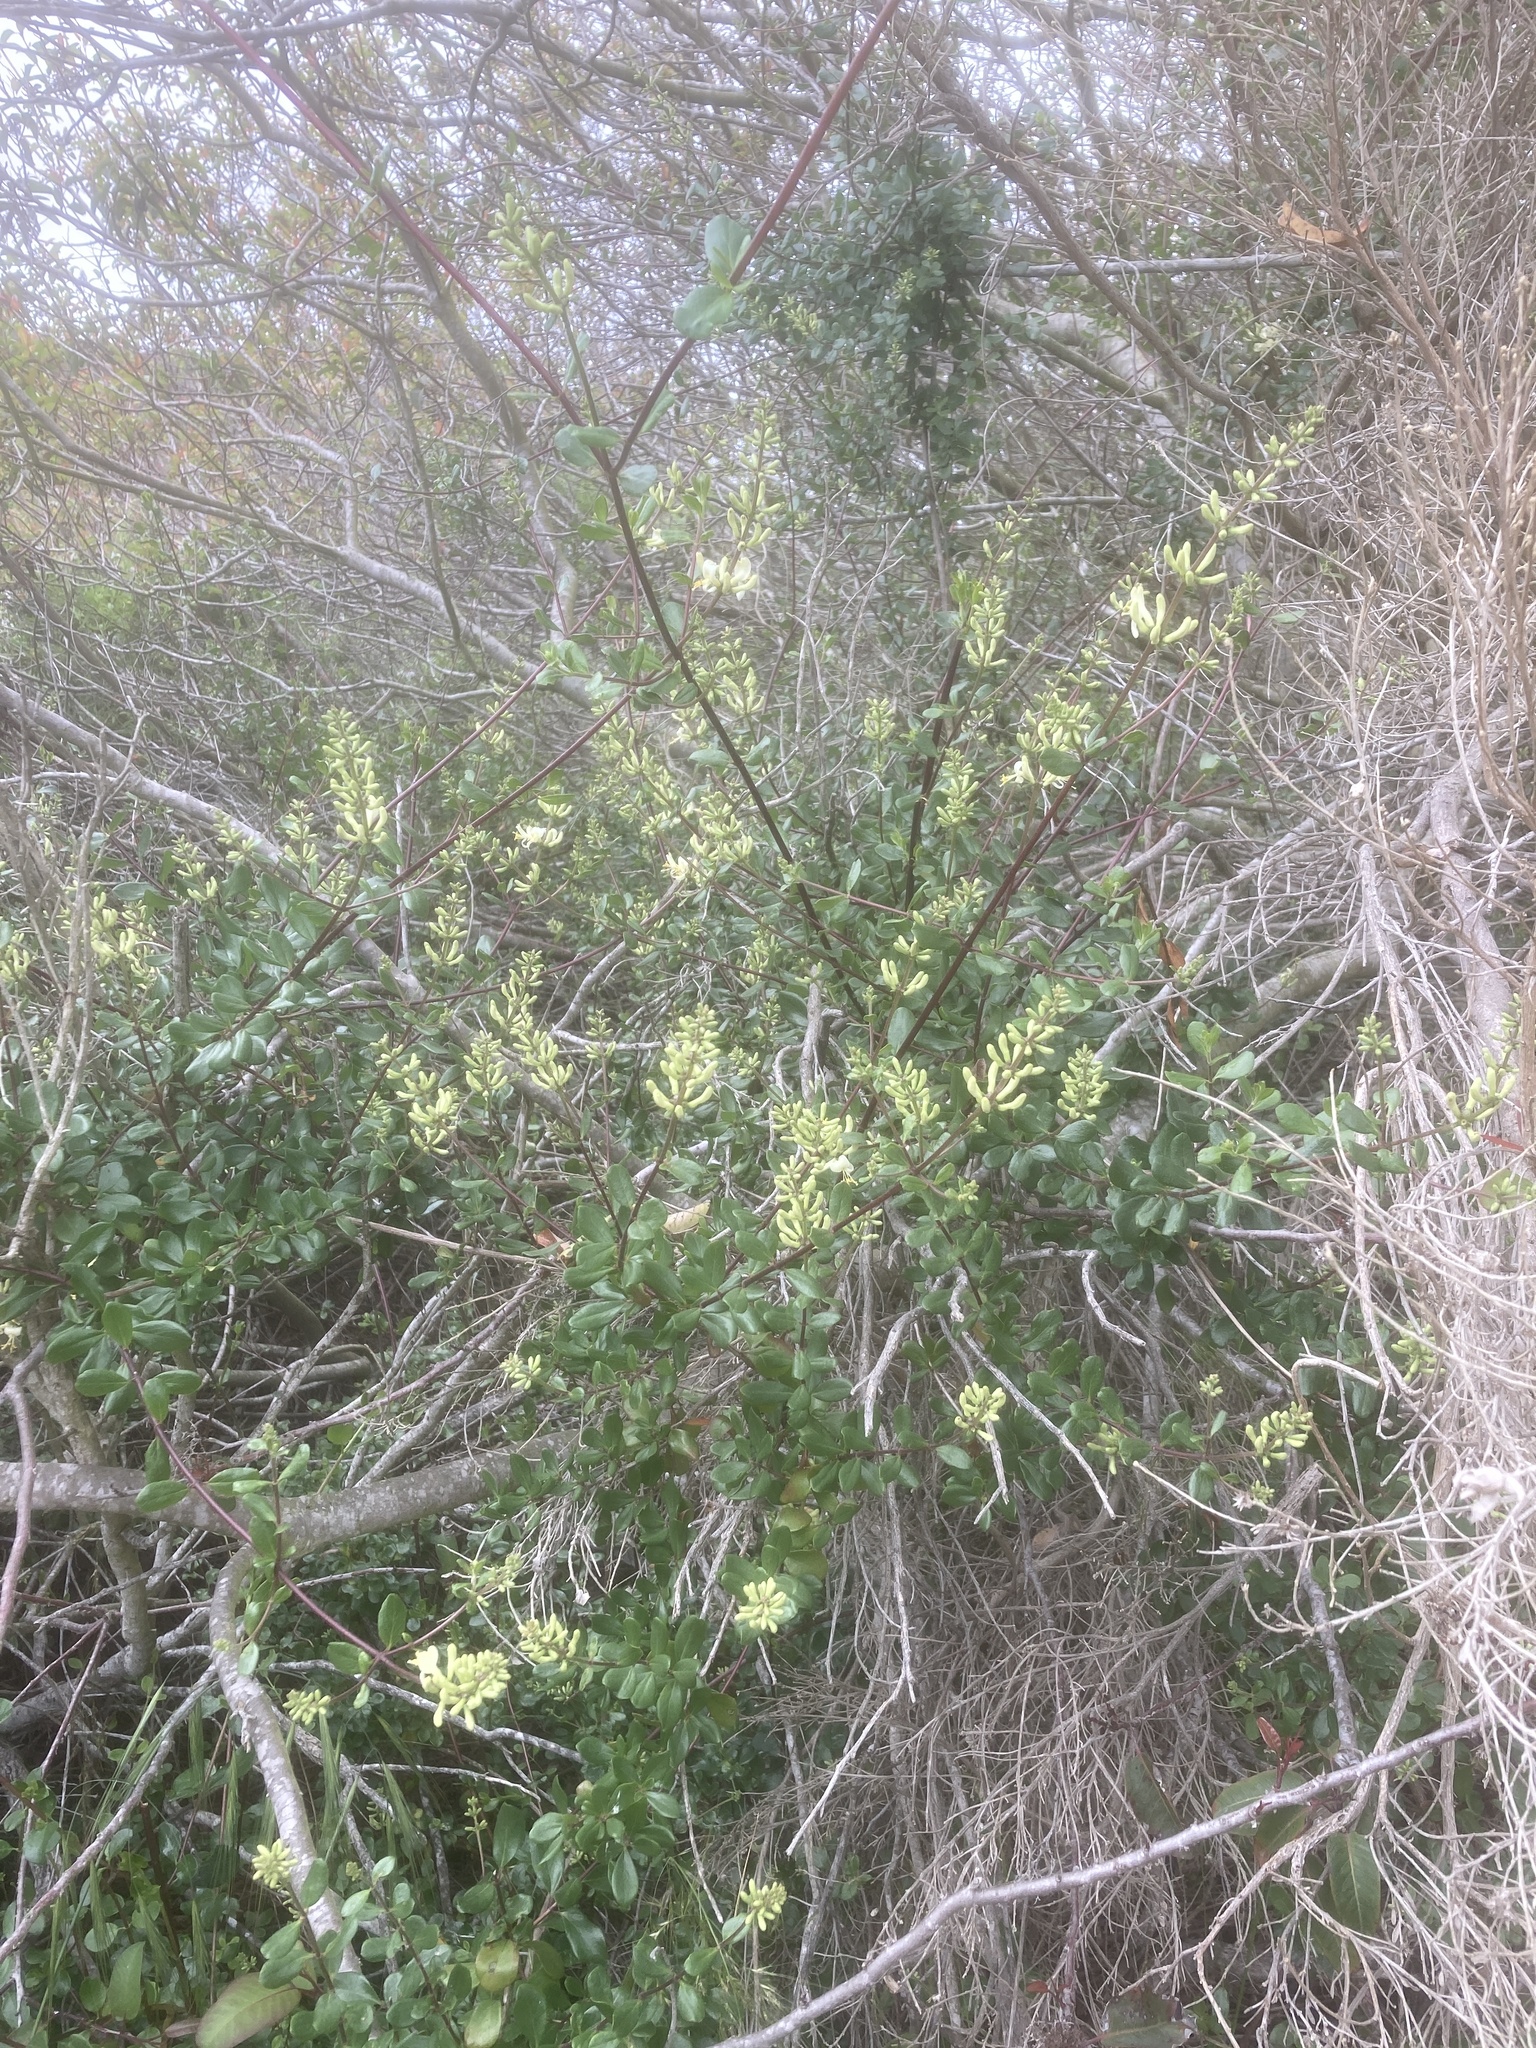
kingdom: Plantae
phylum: Tracheophyta
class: Magnoliopsida
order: Dipsacales
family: Caprifoliaceae
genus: Lonicera
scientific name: Lonicera subspicata
